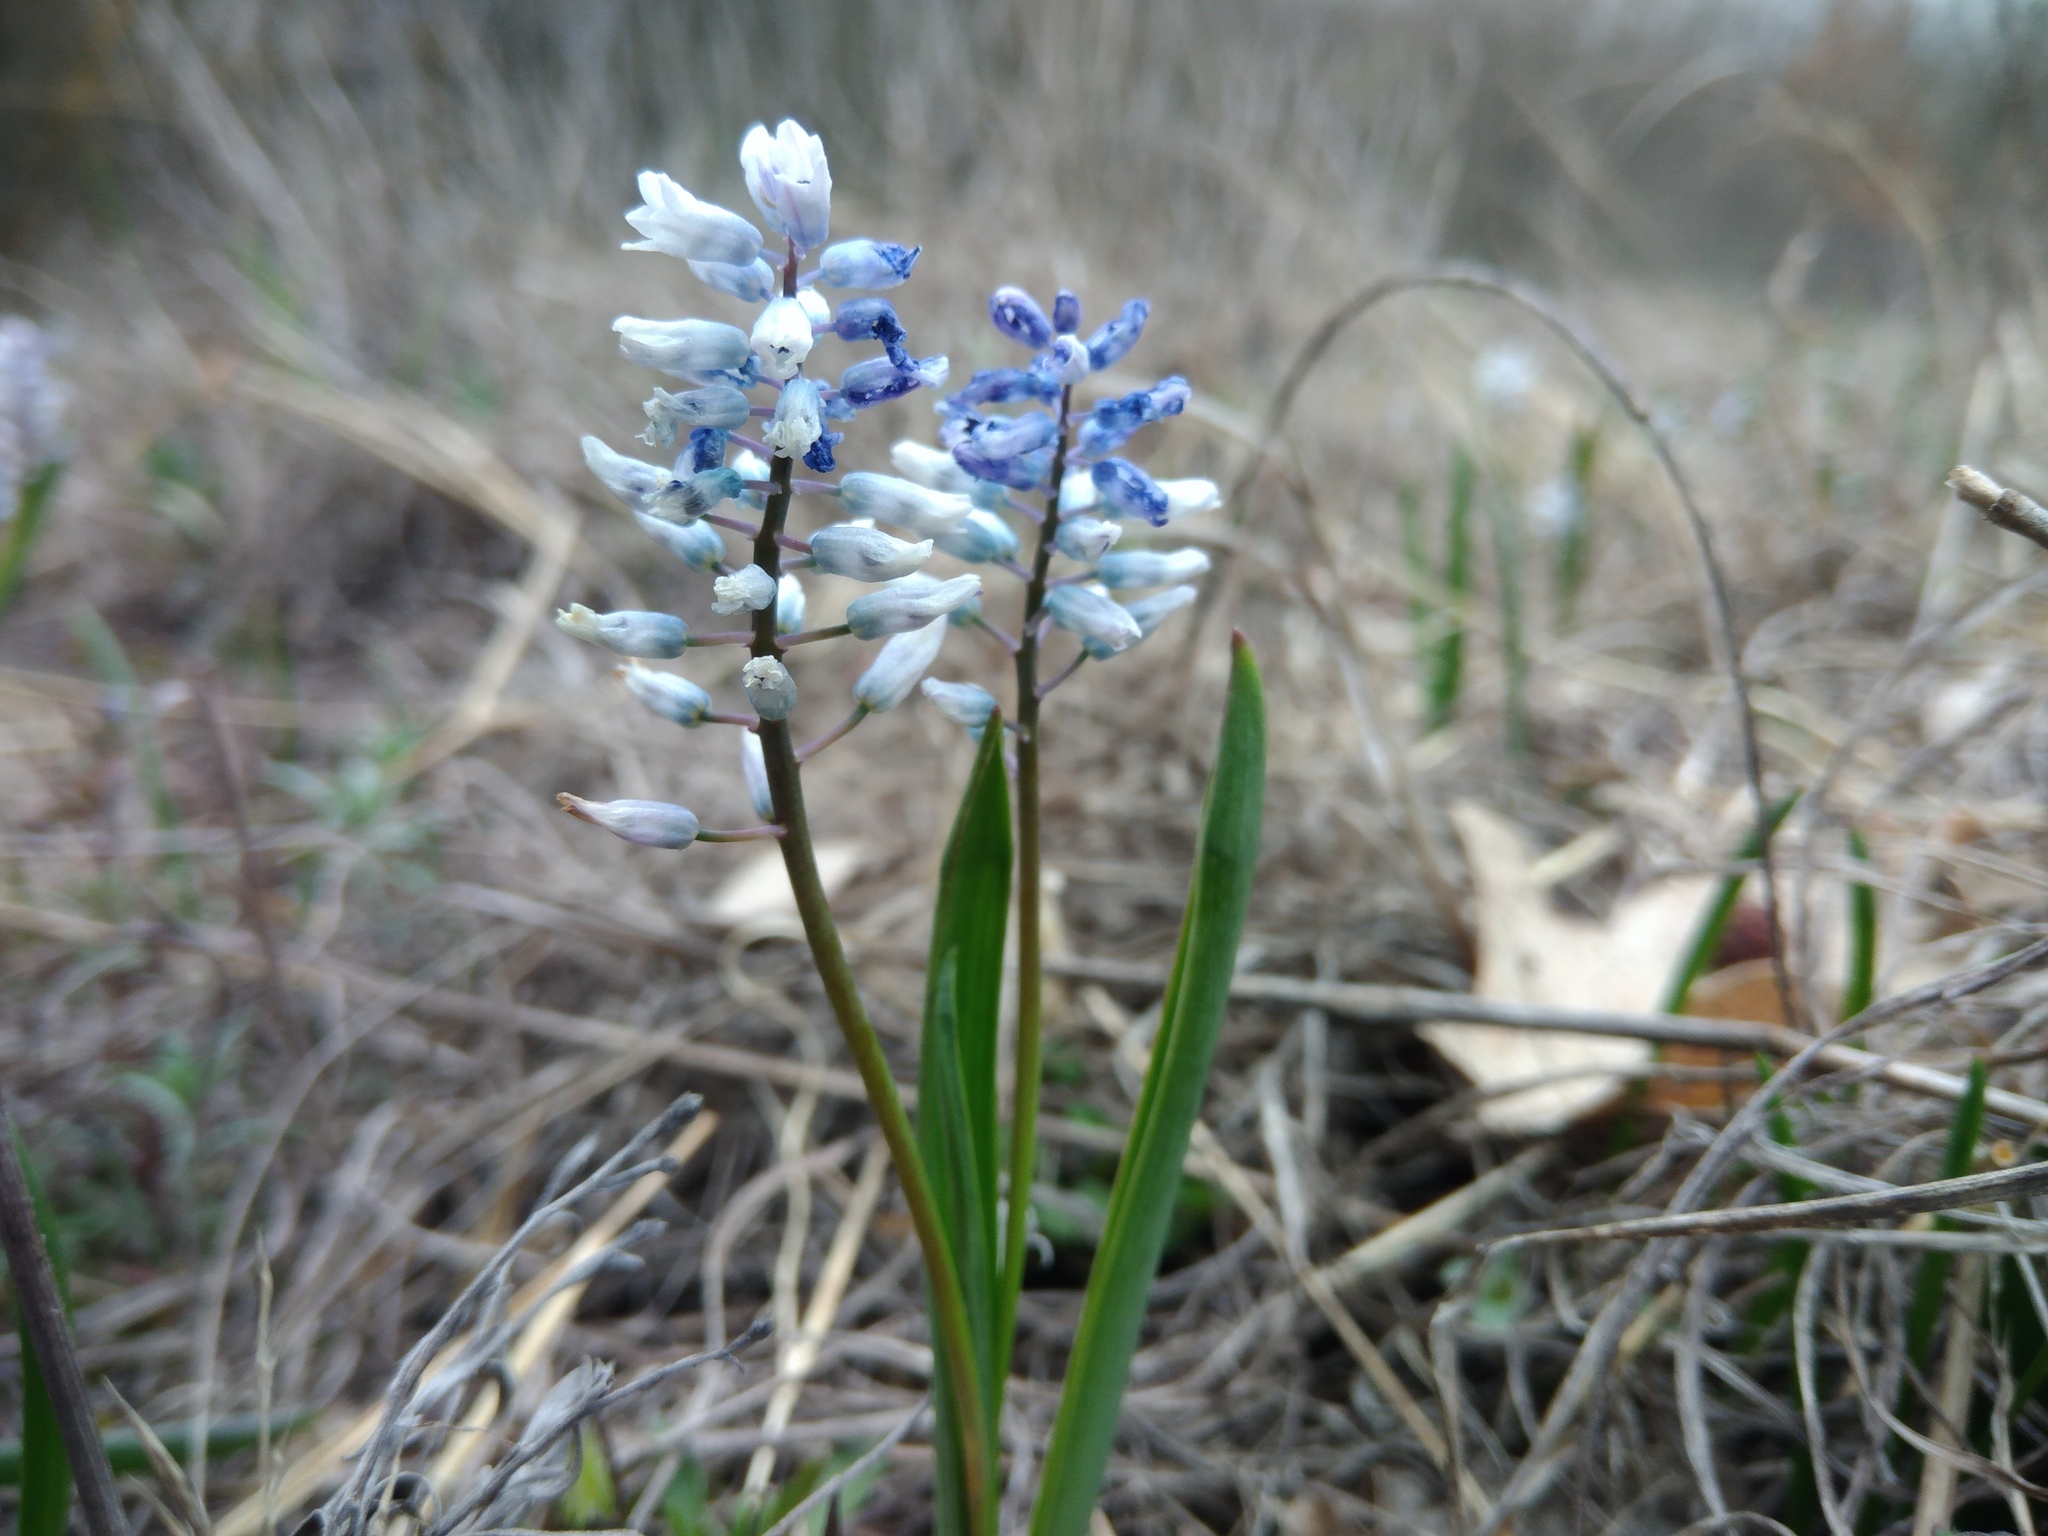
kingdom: Plantae
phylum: Tracheophyta
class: Liliopsida
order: Asparagales
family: Asparagaceae
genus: Hyacinthella
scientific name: Hyacinthella leucophaea
